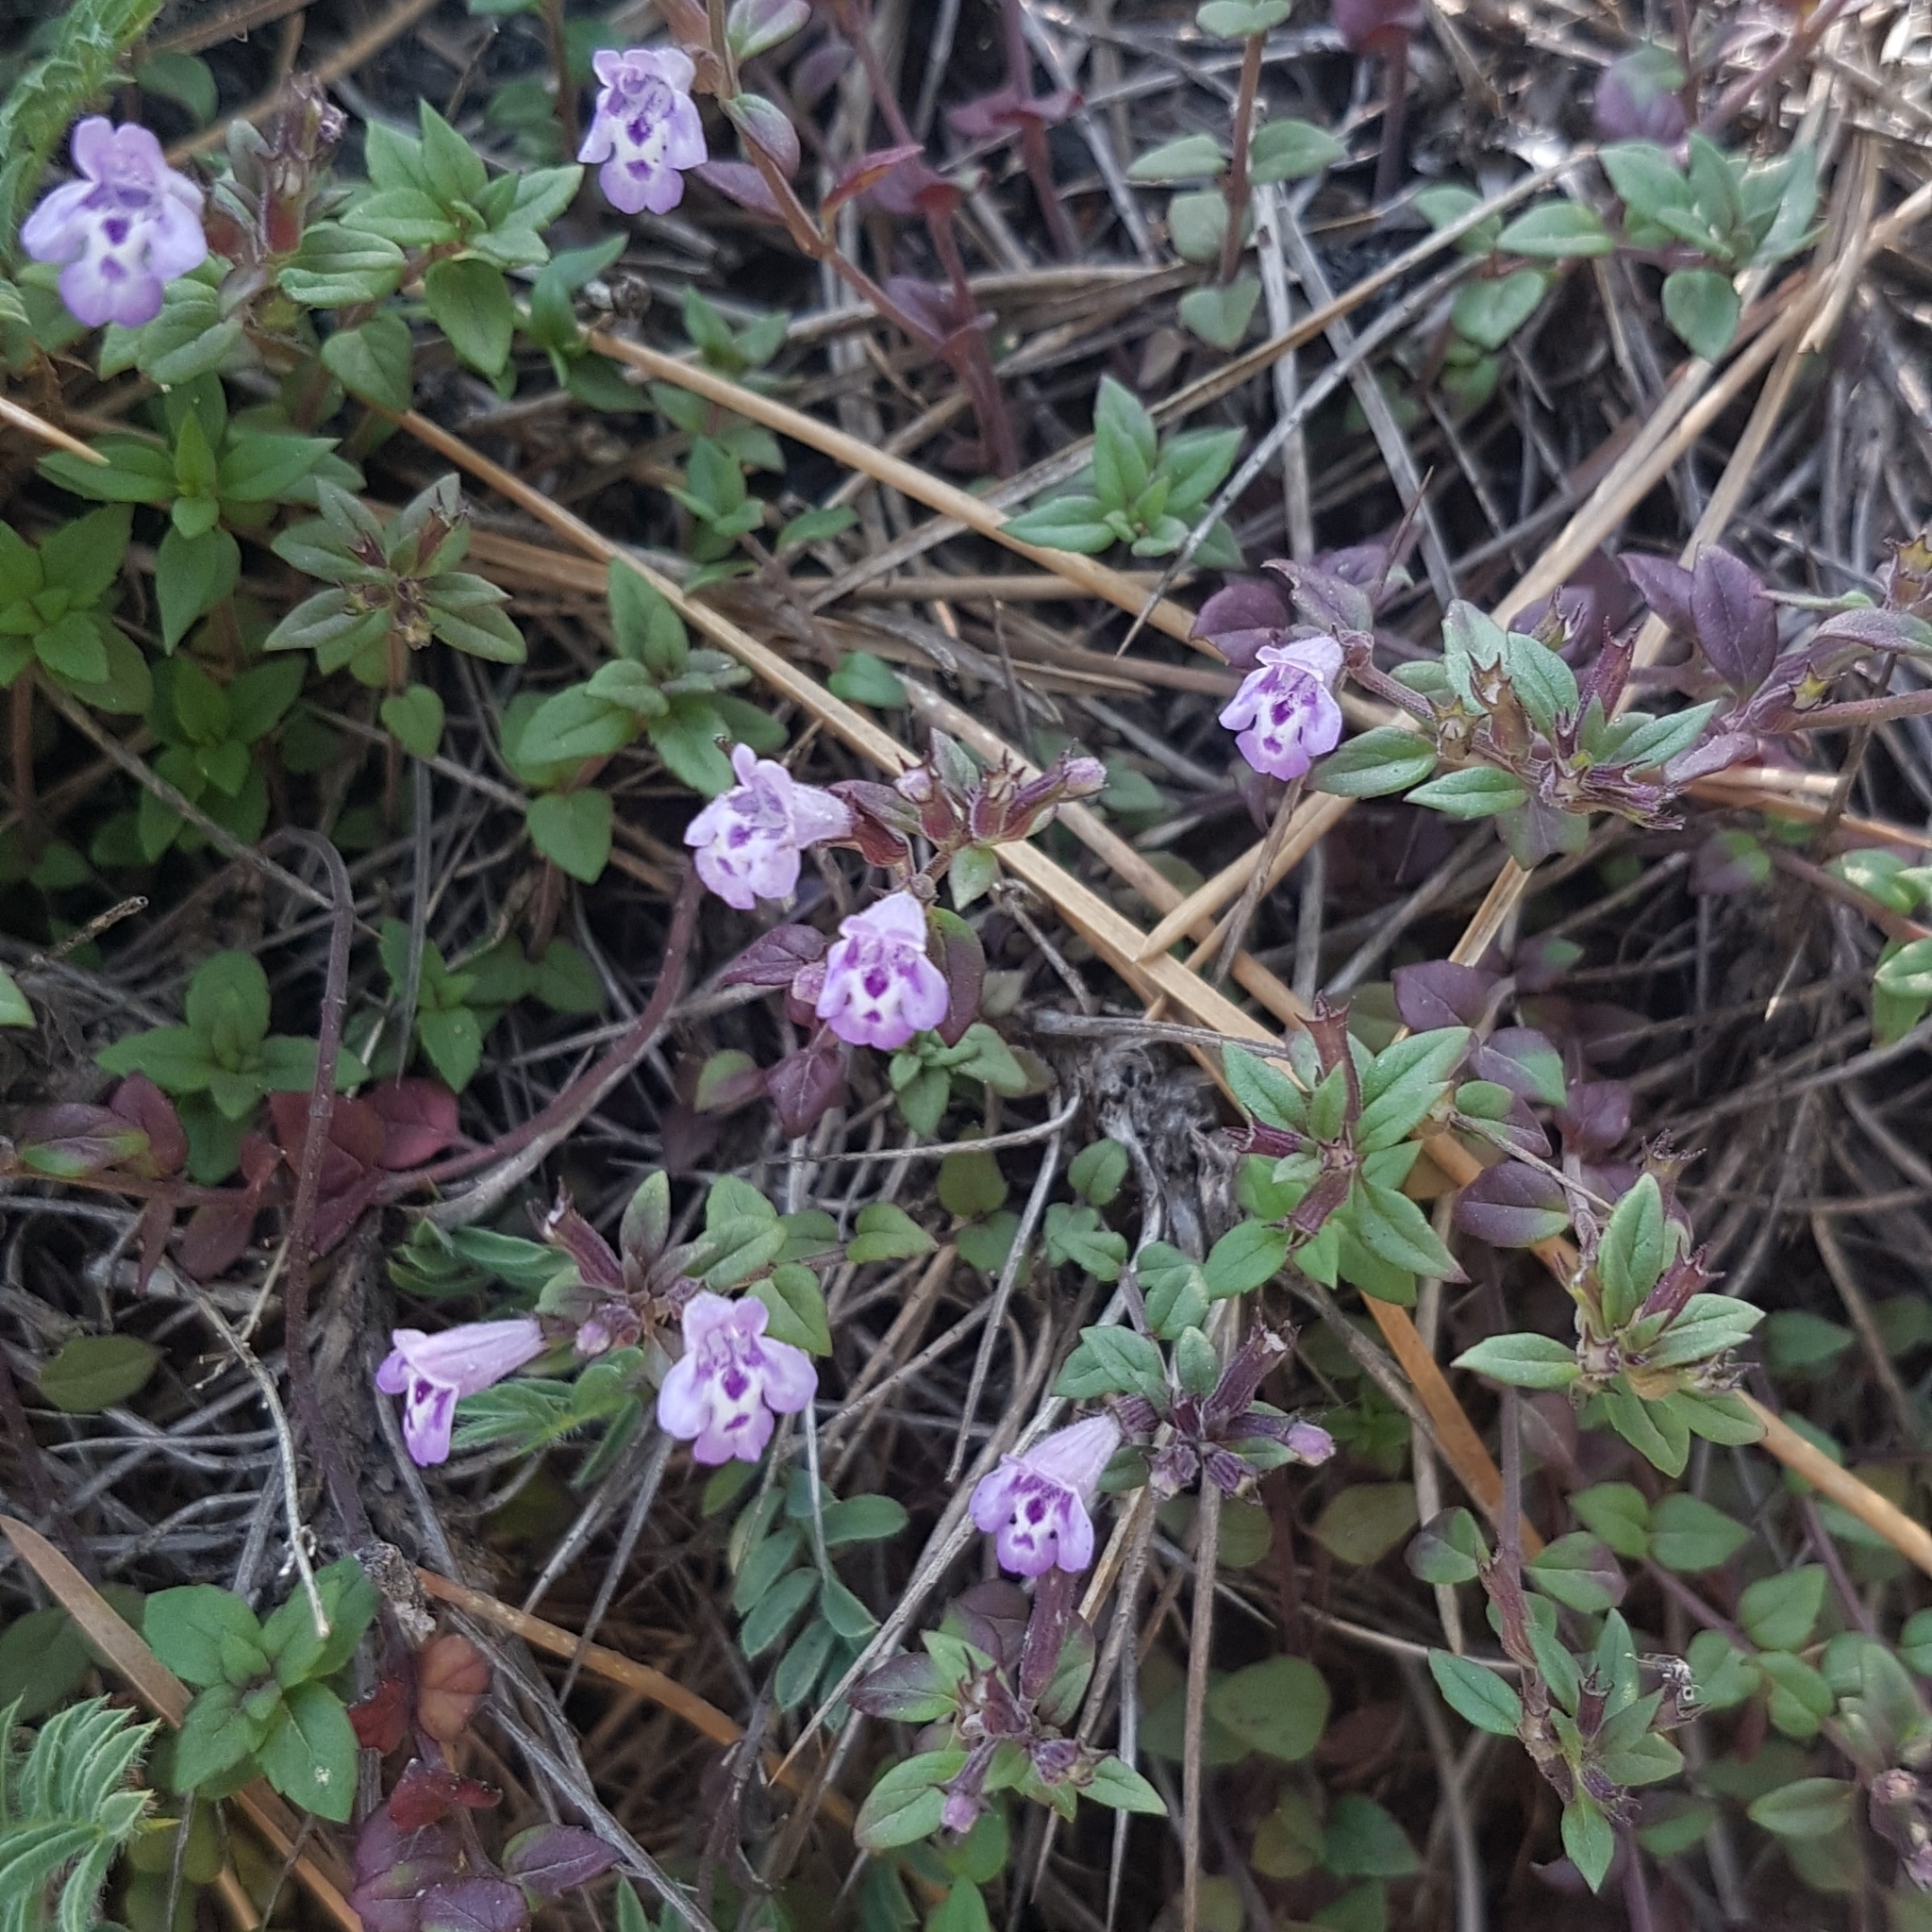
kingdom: Plantae
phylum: Tracheophyta
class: Magnoliopsida
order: Lamiales
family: Lamiaceae
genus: Clinopodium
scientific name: Clinopodium alpinum
